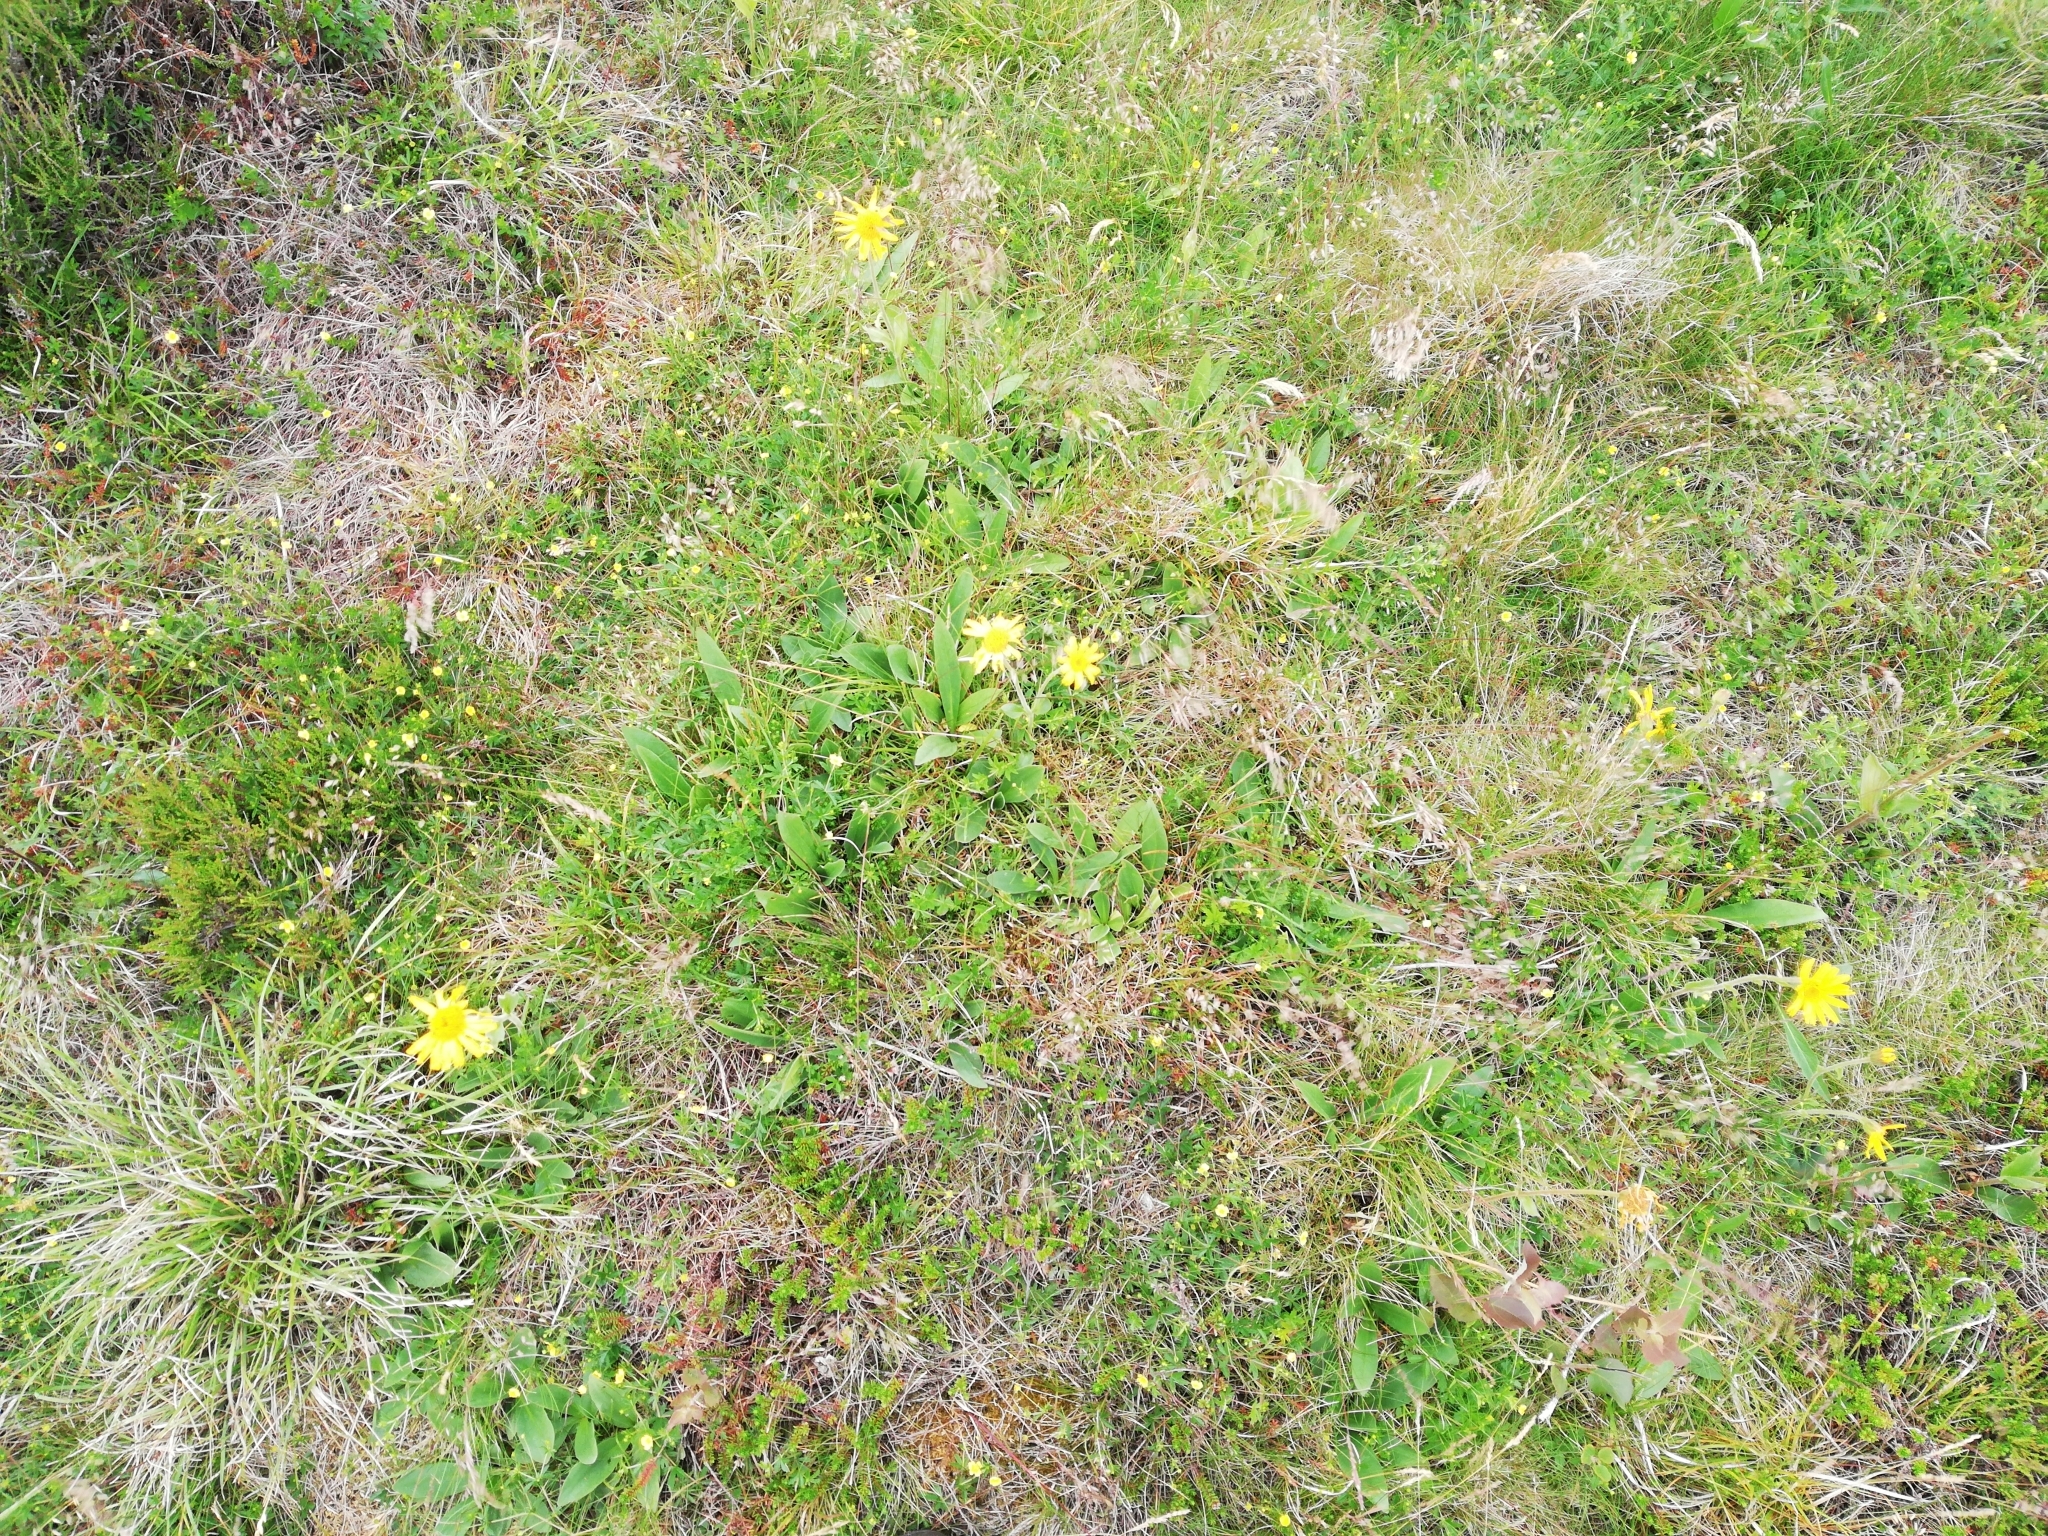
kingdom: Plantae
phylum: Tracheophyta
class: Magnoliopsida
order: Asterales
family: Asteraceae
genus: Arnica
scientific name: Arnica montana
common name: Leopard's bane
